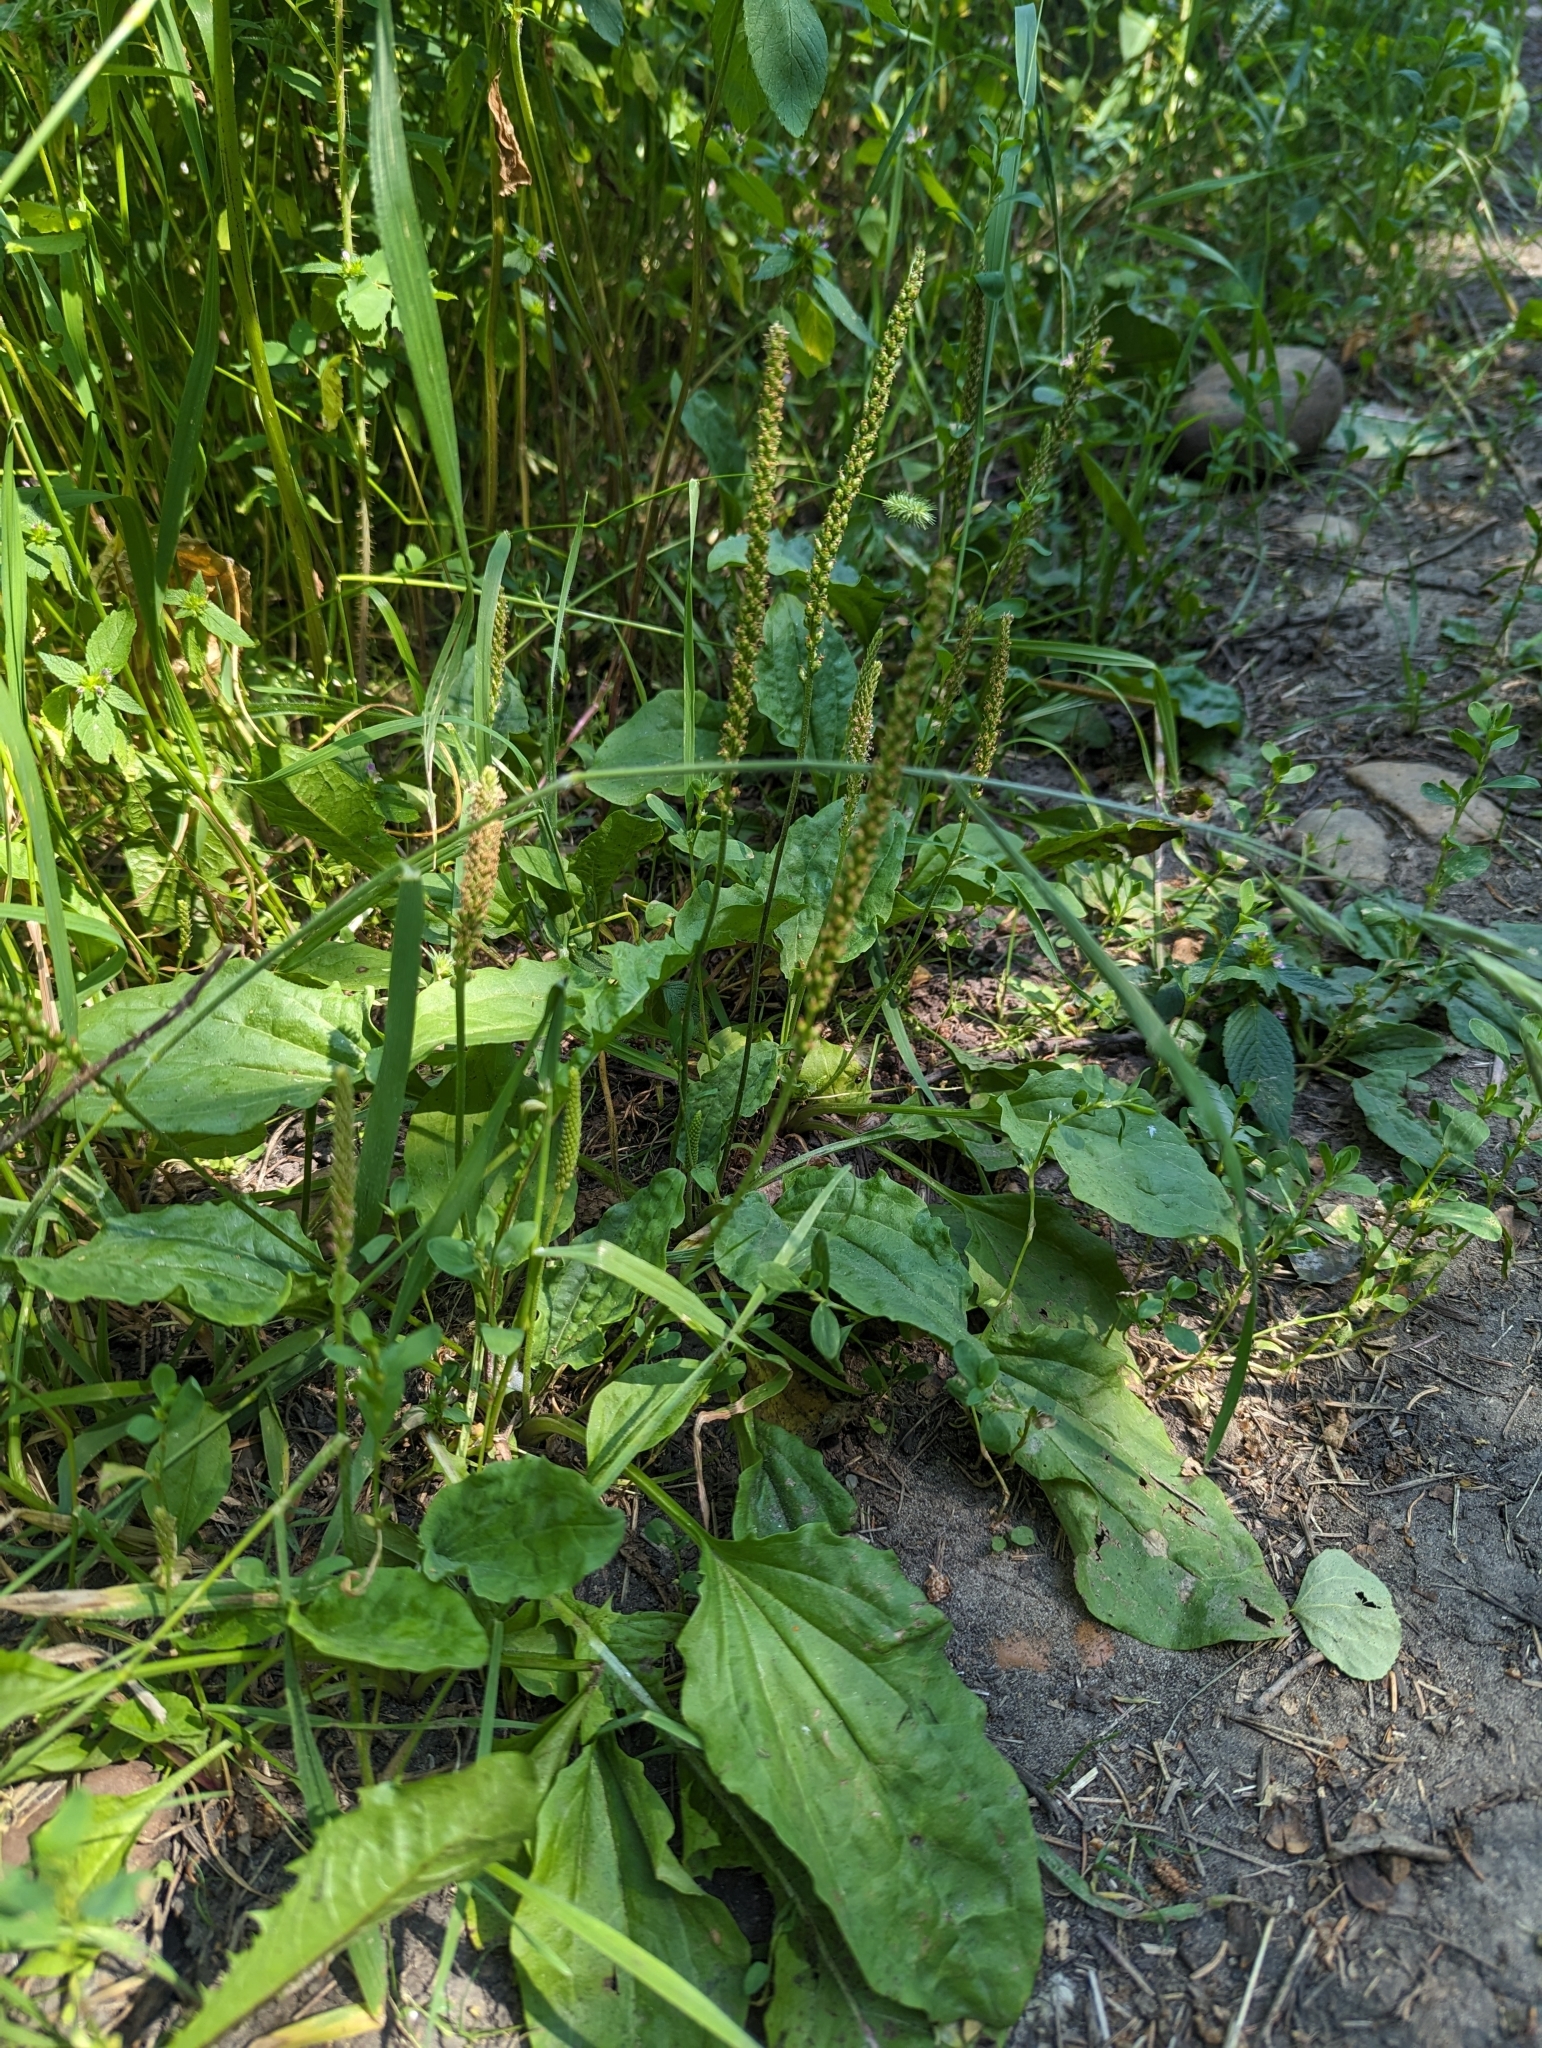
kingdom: Plantae
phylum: Tracheophyta
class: Magnoliopsida
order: Lamiales
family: Plantaginaceae
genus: Plantago
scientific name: Plantago major
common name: Common plantain
